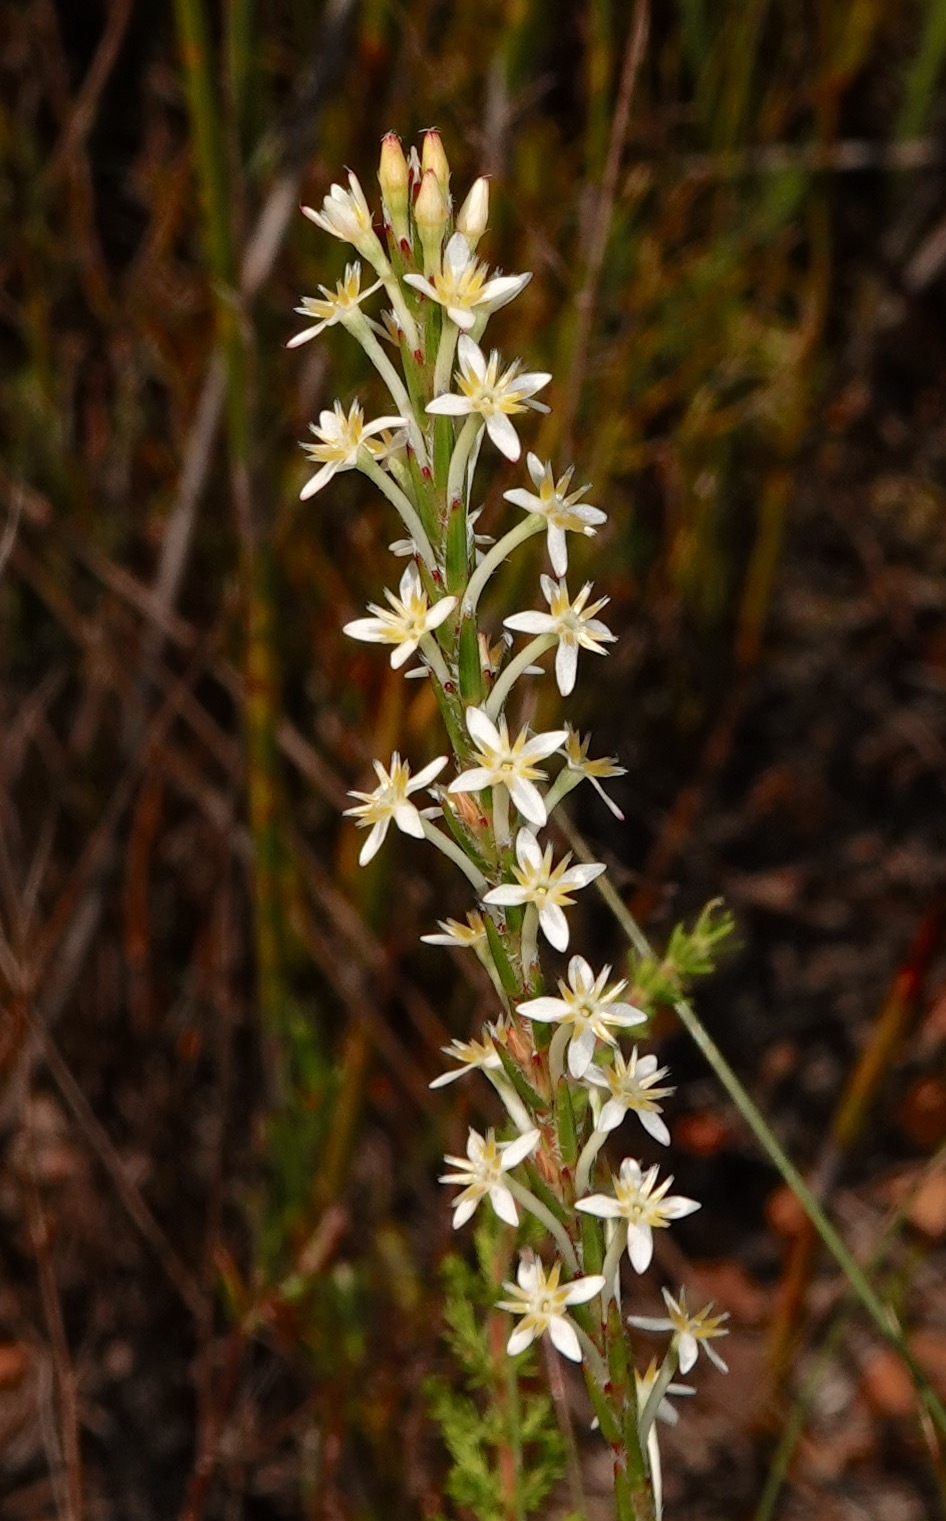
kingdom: Plantae
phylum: Tracheophyta
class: Magnoliopsida
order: Malvales
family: Thymelaeaceae
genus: Struthiola
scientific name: Struthiola ciliata
